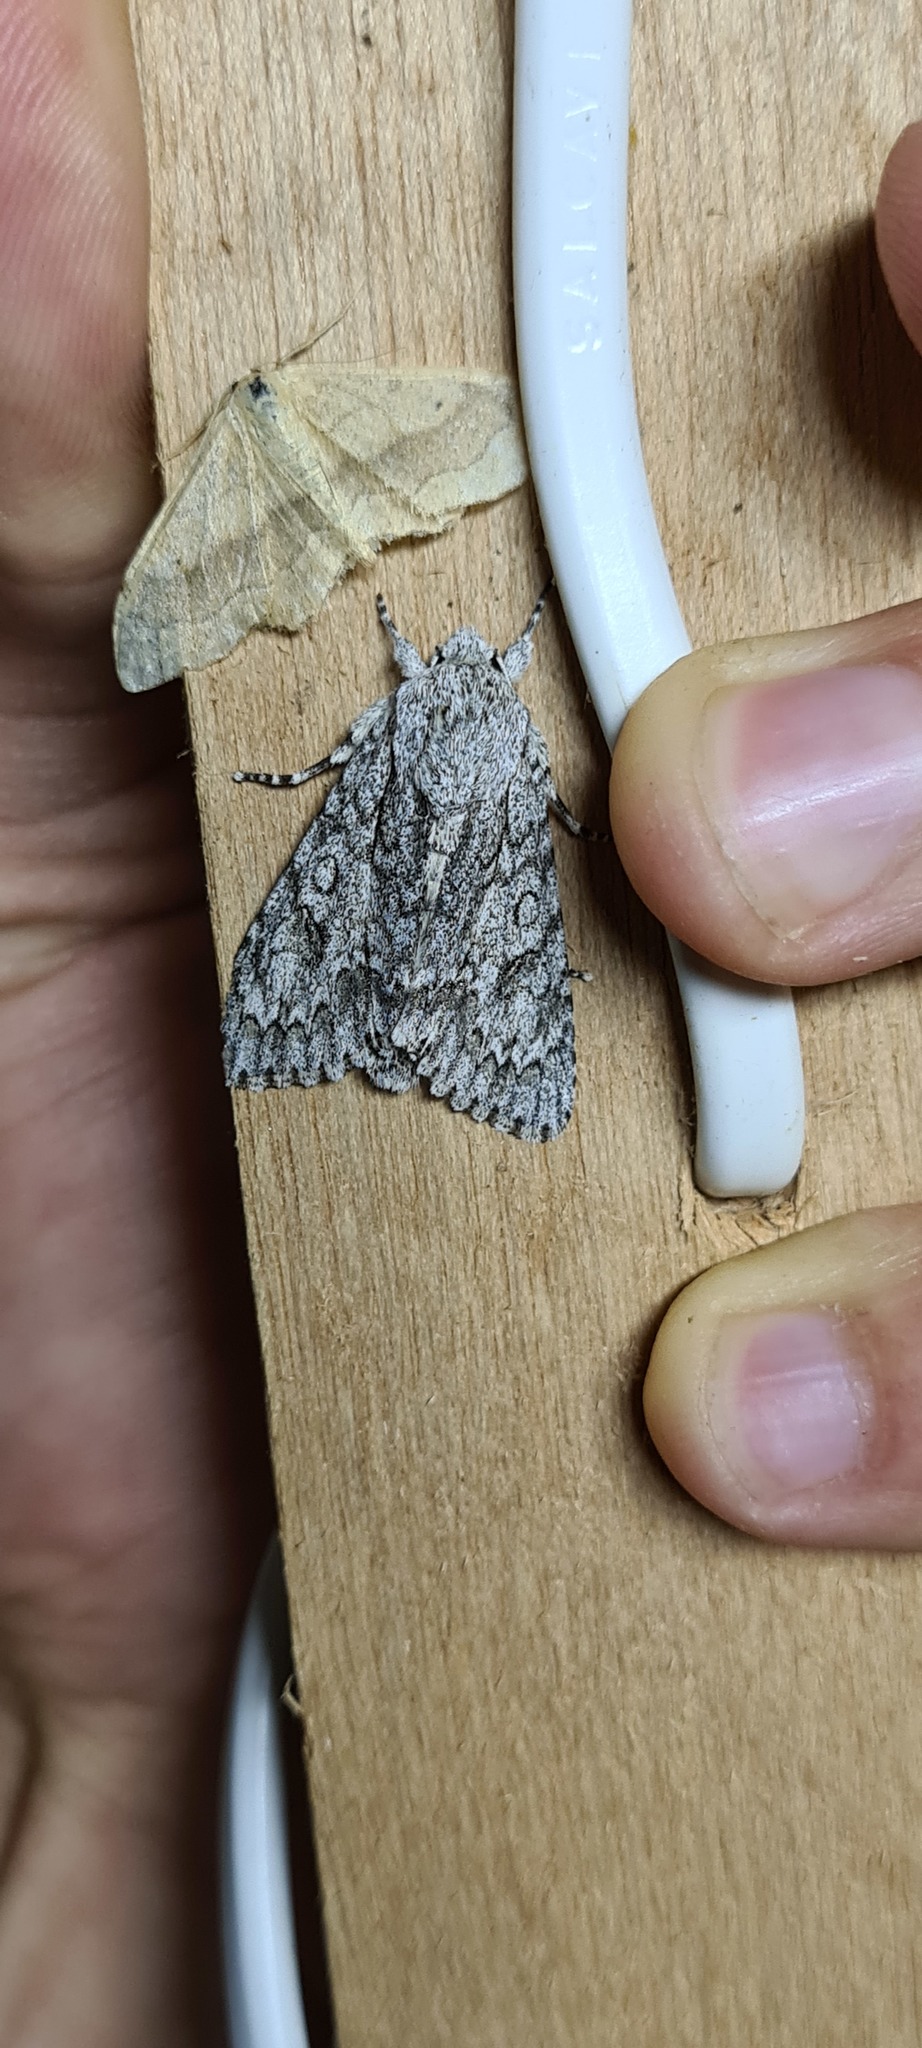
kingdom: Animalia
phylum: Arthropoda
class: Insecta
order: Lepidoptera
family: Noctuidae
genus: Acronicta
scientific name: Acronicta aceris
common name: Sycamore
